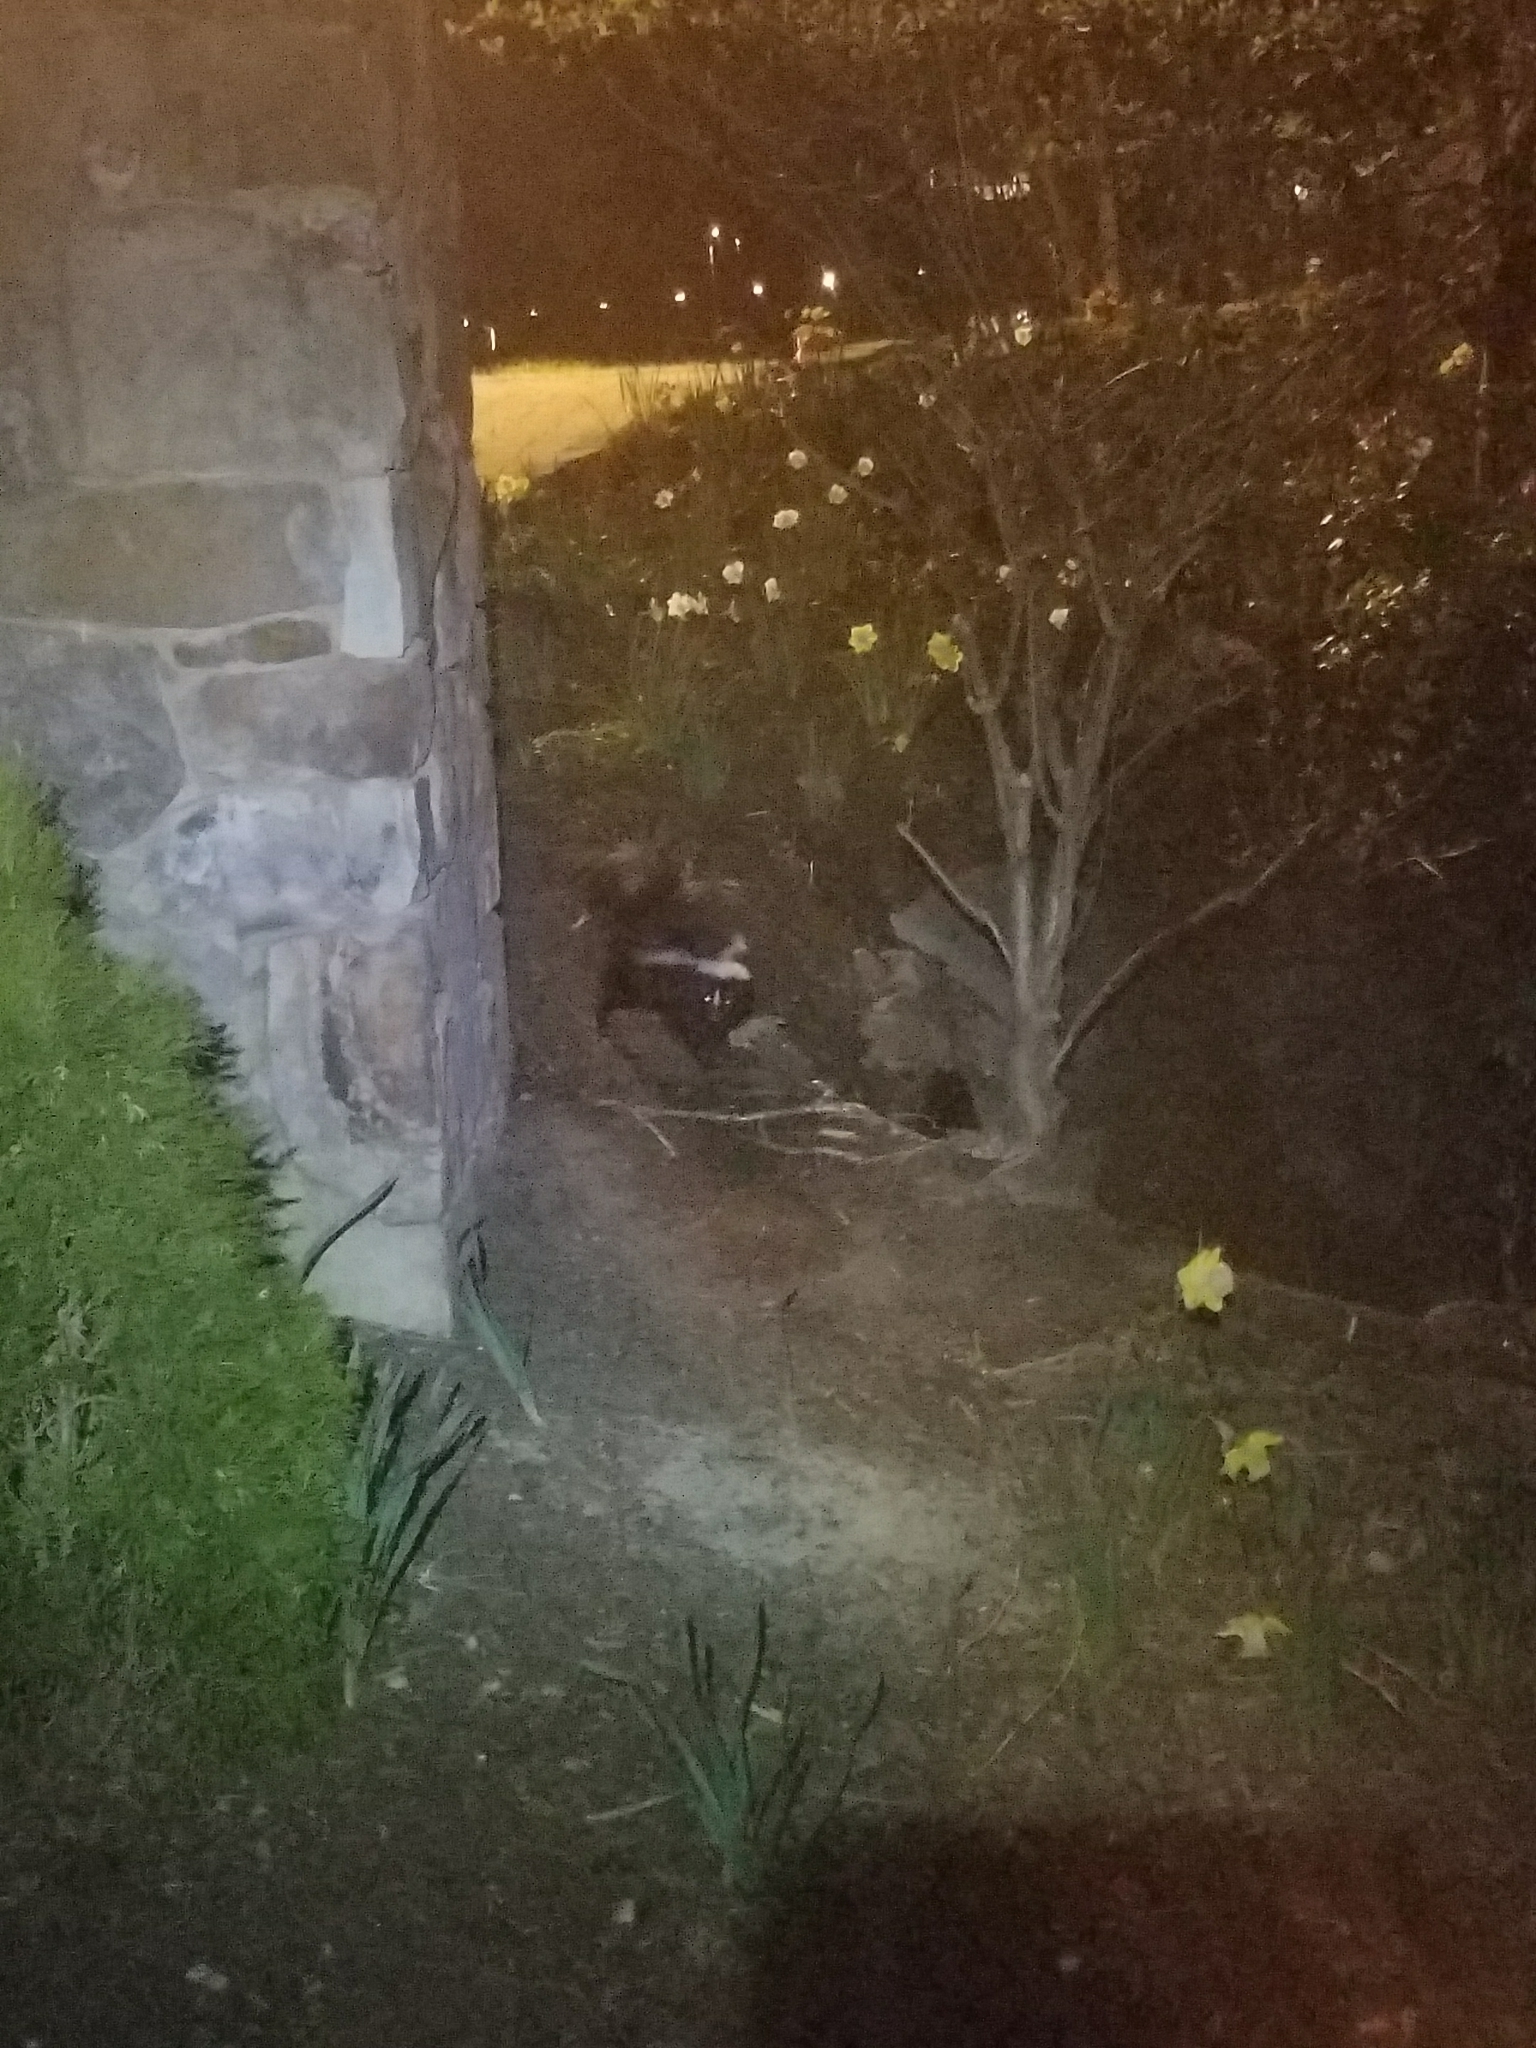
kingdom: Animalia
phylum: Chordata
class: Mammalia
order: Carnivora
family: Mephitidae
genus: Mephitis
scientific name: Mephitis mephitis
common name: Striped skunk
